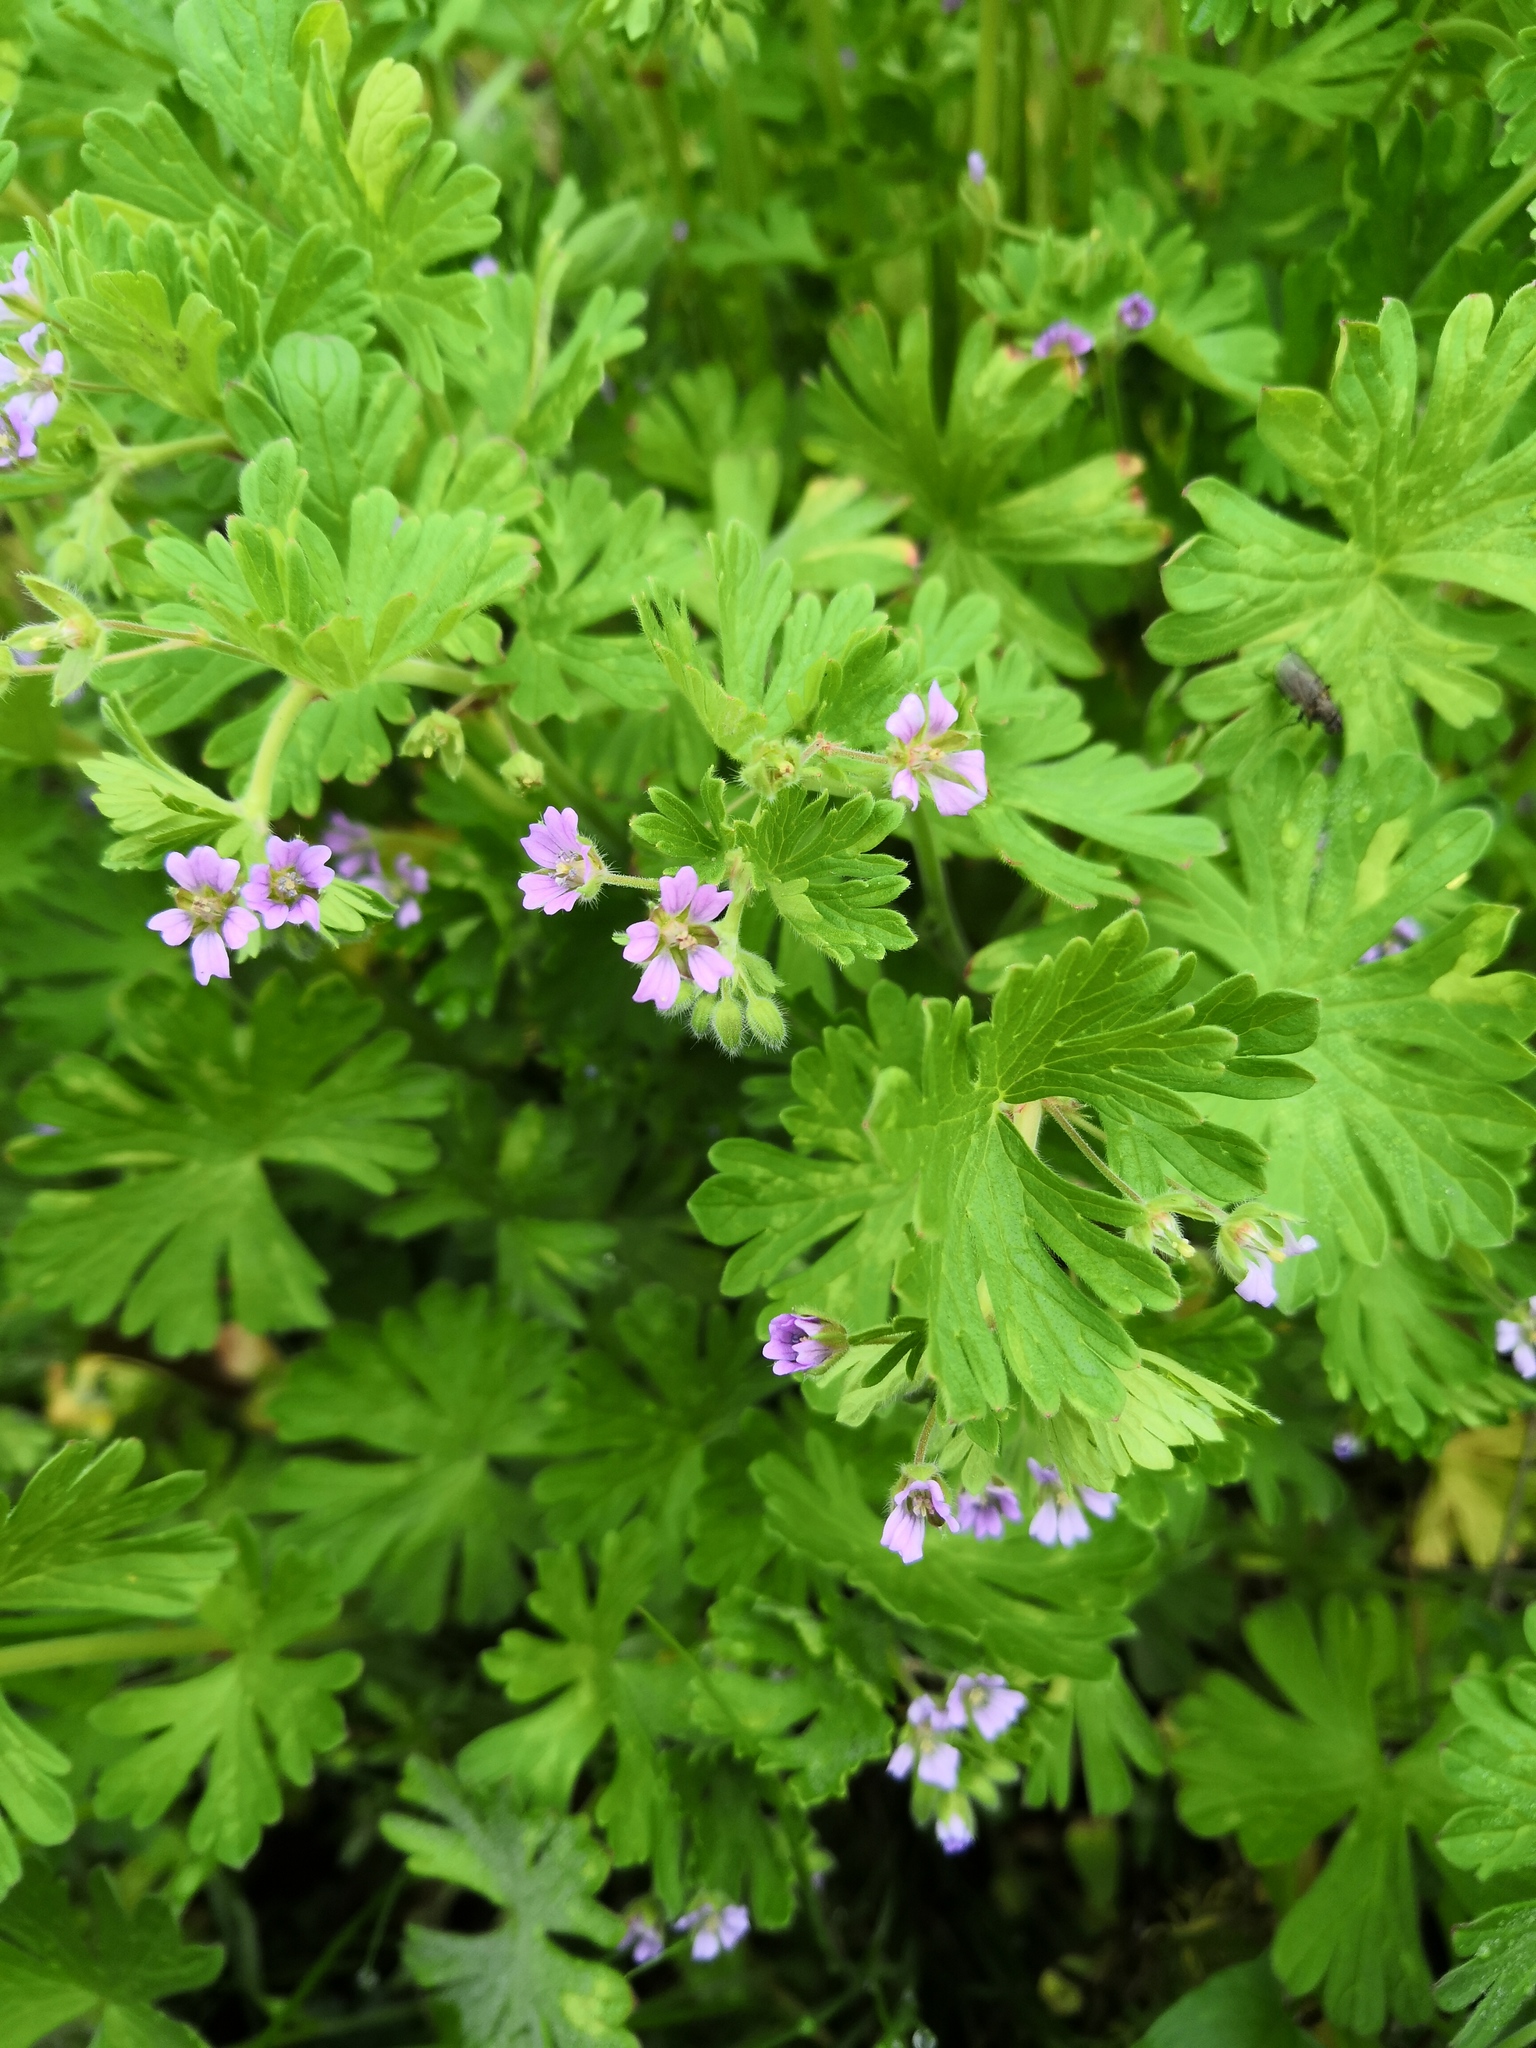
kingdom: Plantae
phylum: Tracheophyta
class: Magnoliopsida
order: Geraniales
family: Geraniaceae
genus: Geranium
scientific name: Geranium pusillum
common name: Small geranium
